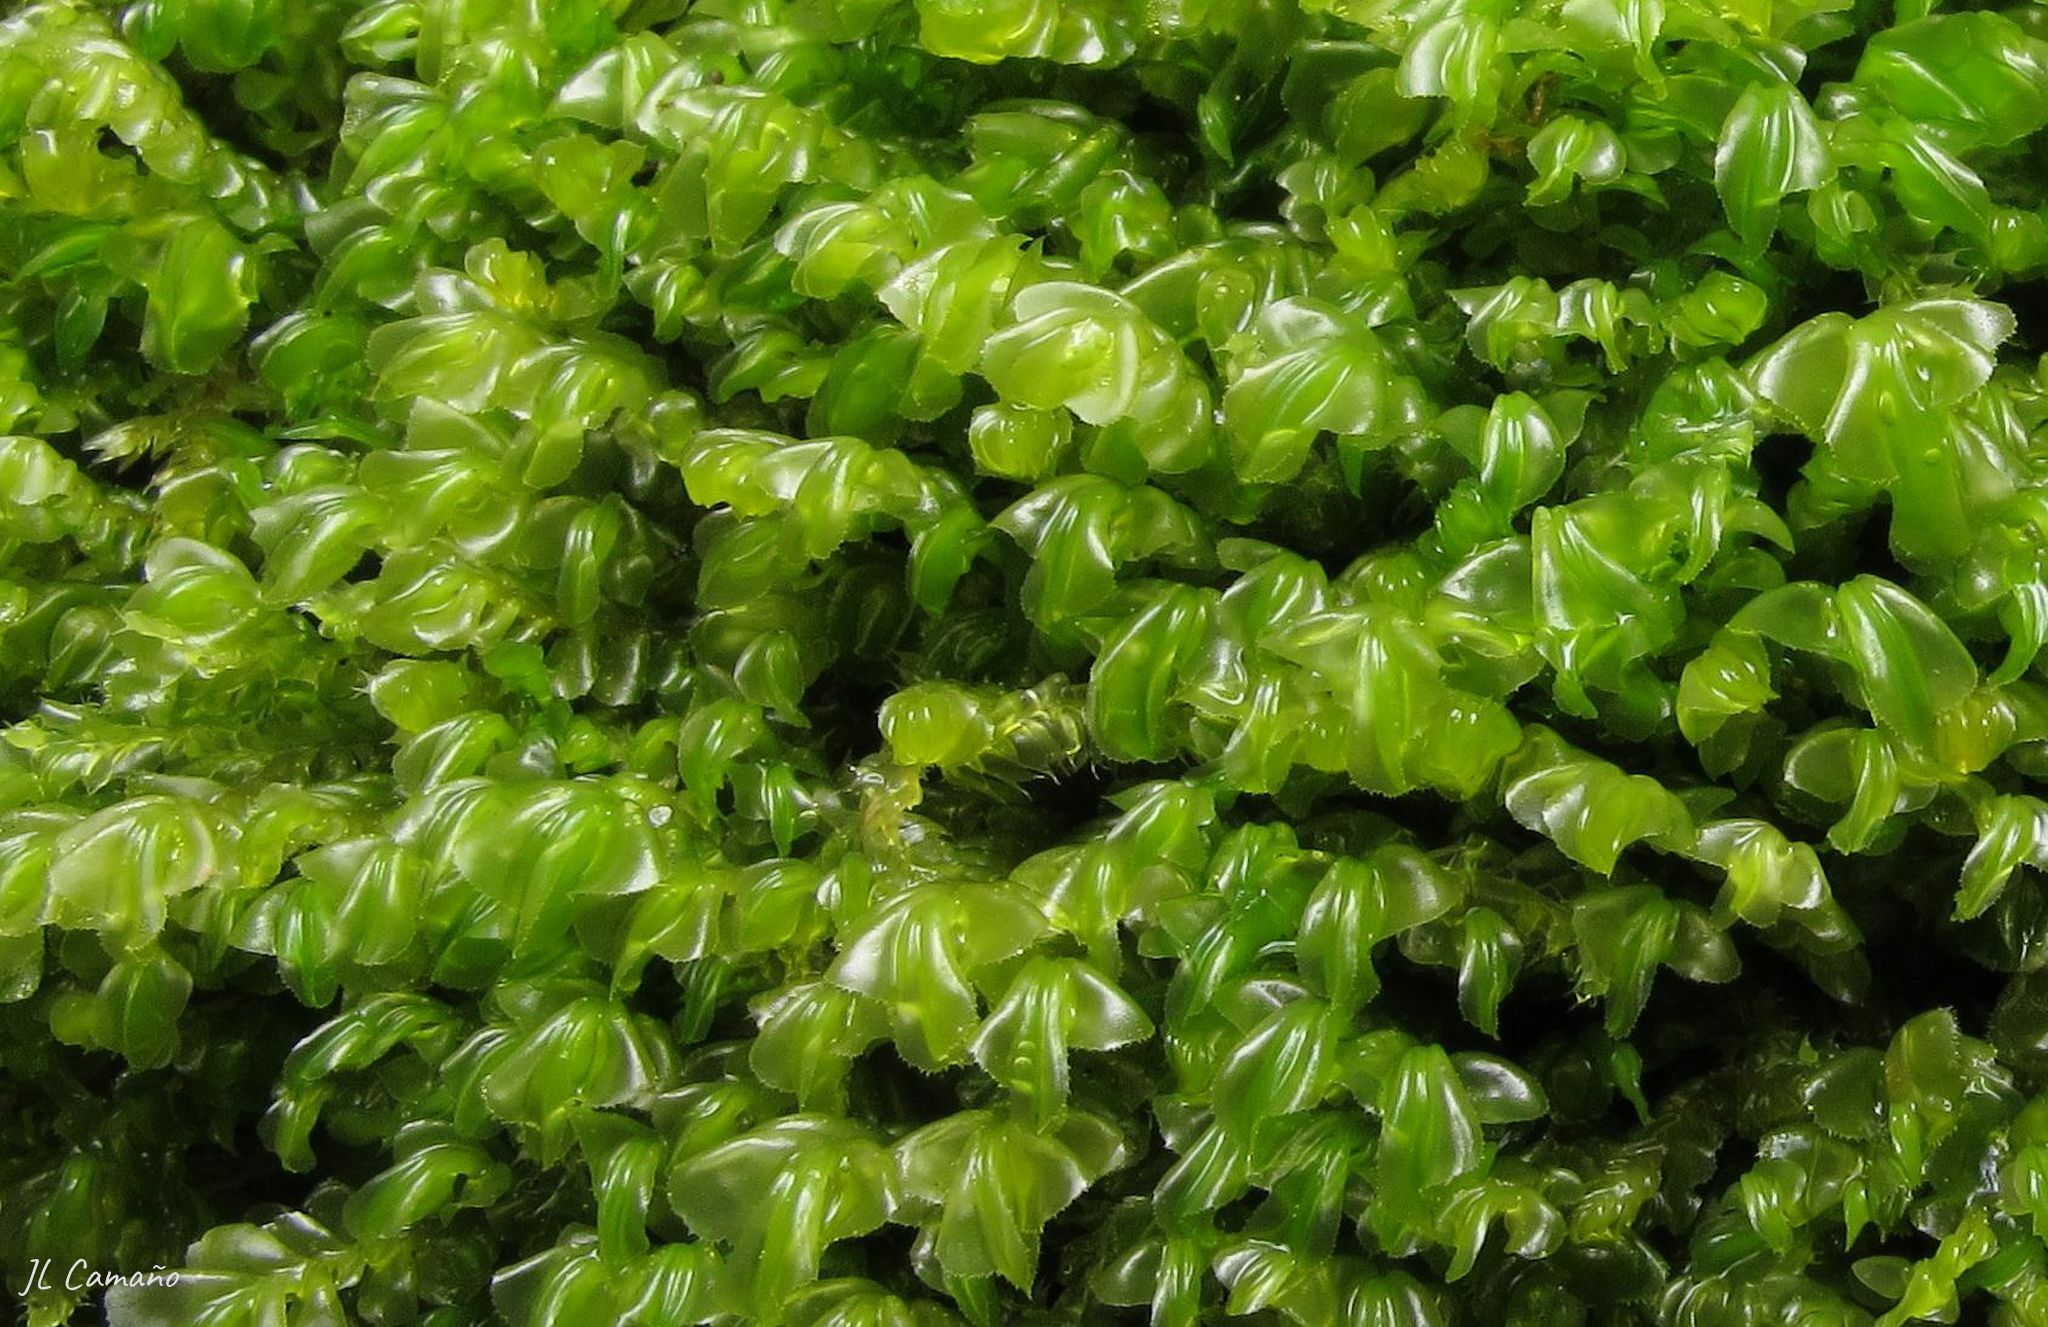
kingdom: Plantae
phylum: Marchantiophyta
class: Jungermanniopsida
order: Jungermanniales
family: Plagiochilaceae
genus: Plagiochila
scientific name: Plagiochila porelloides
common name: Lesser featherwort
